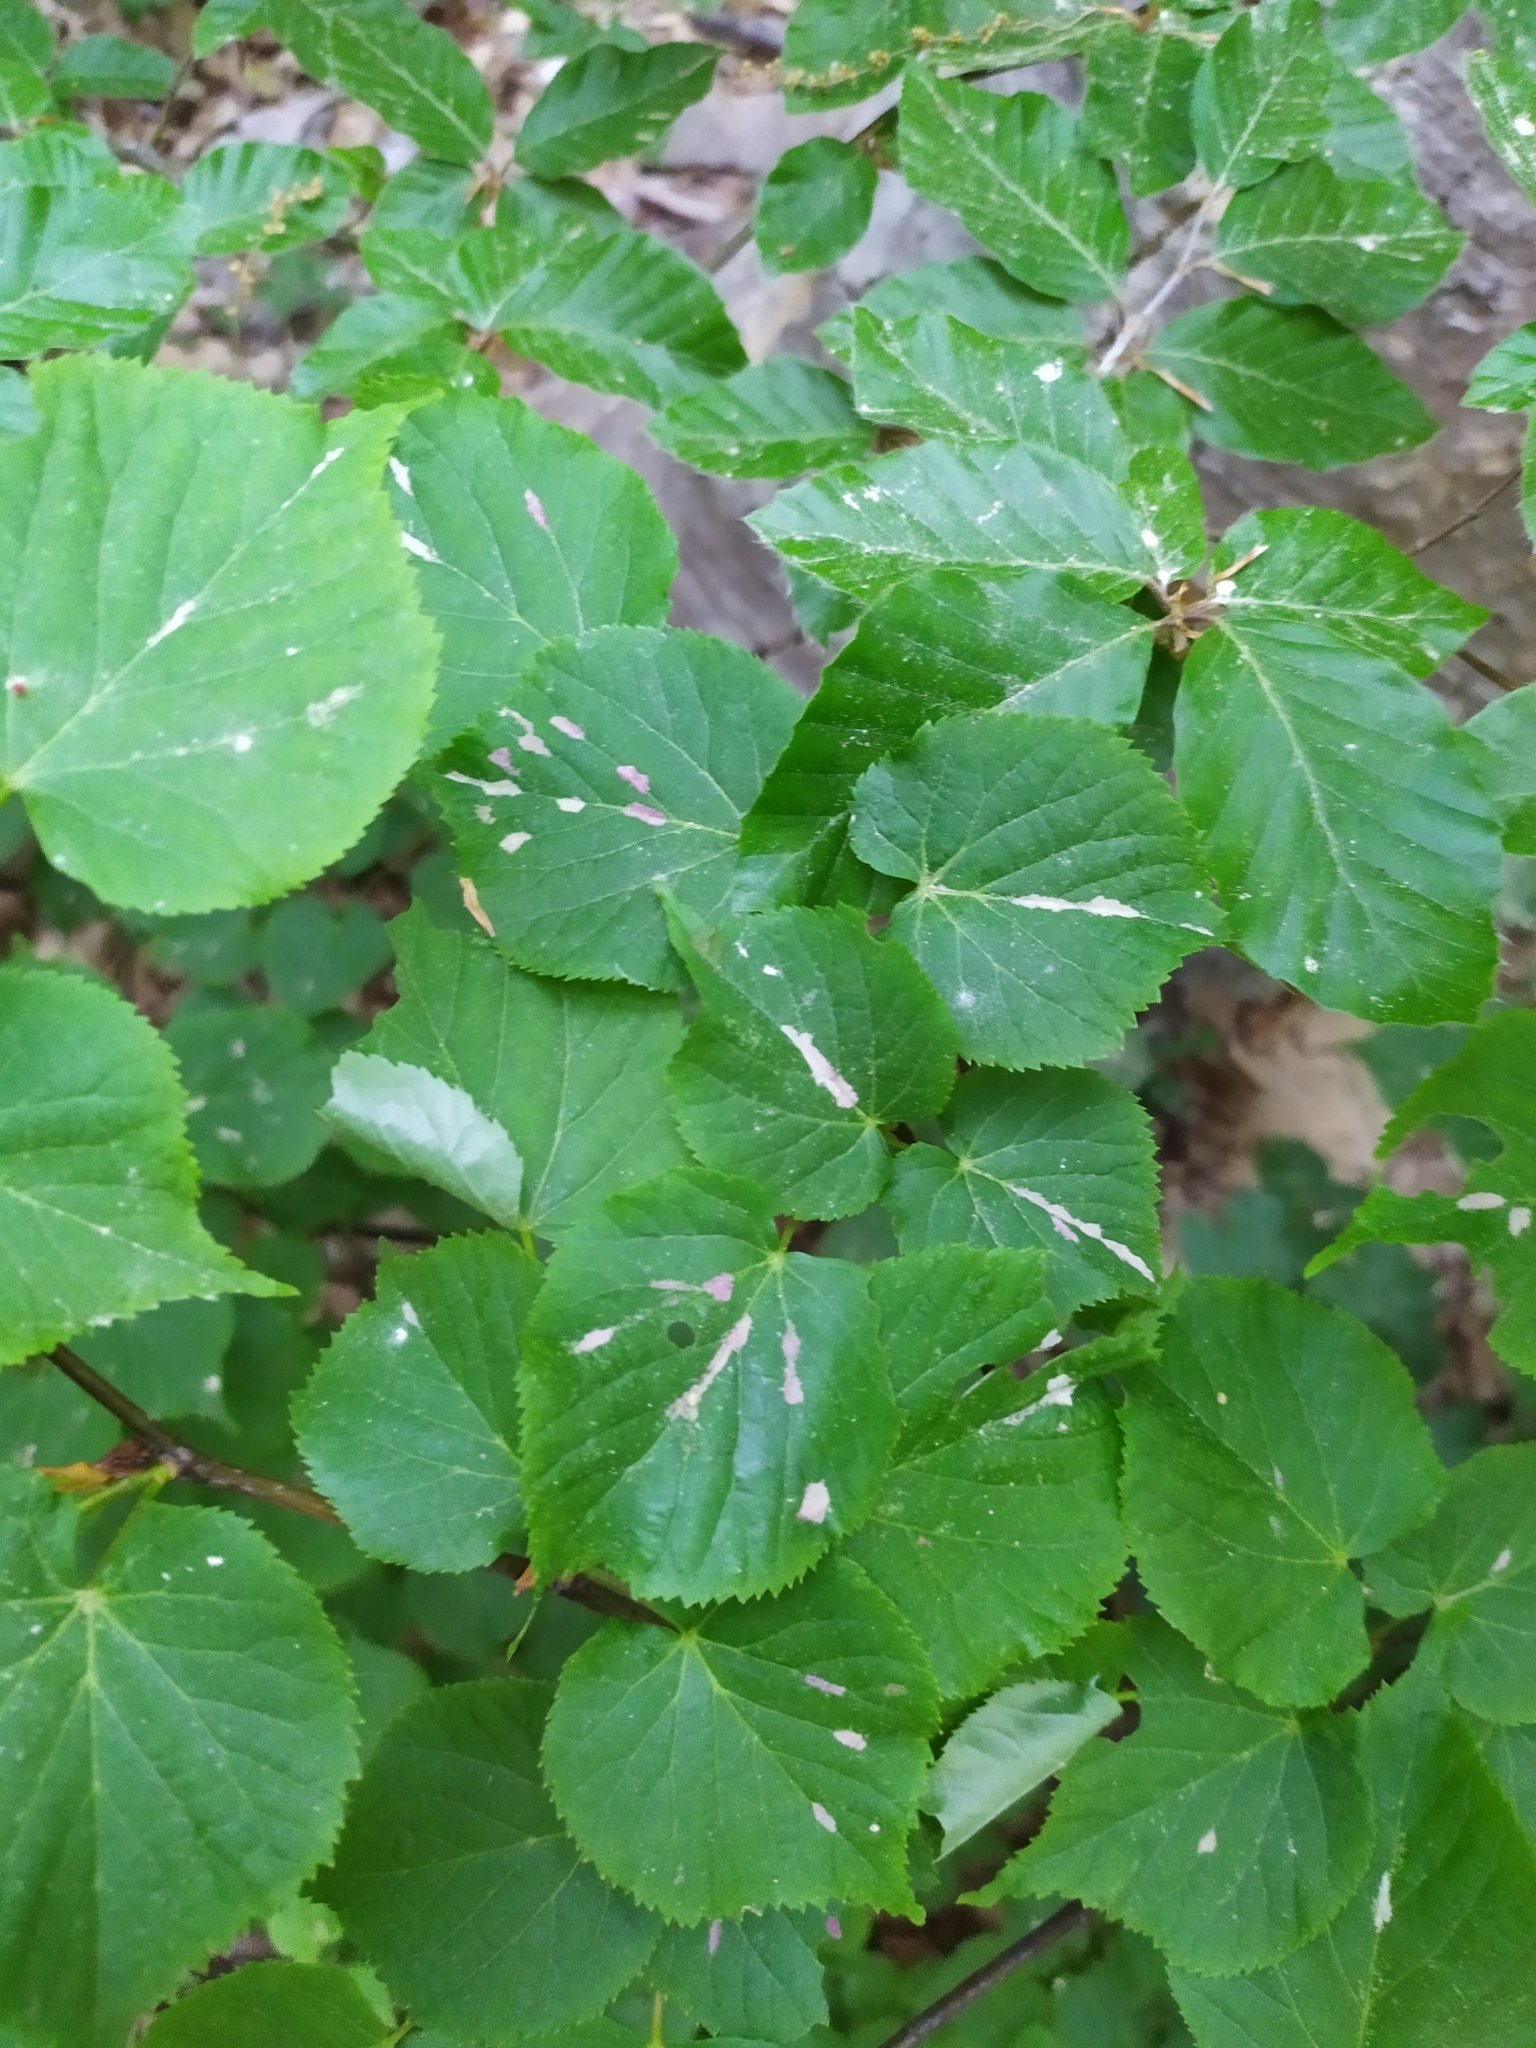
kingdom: Animalia
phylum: Arthropoda
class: Arachnida
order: Trombidiformes
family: Eriophyidae
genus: Eriophyes
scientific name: Eriophyes leiosoma
